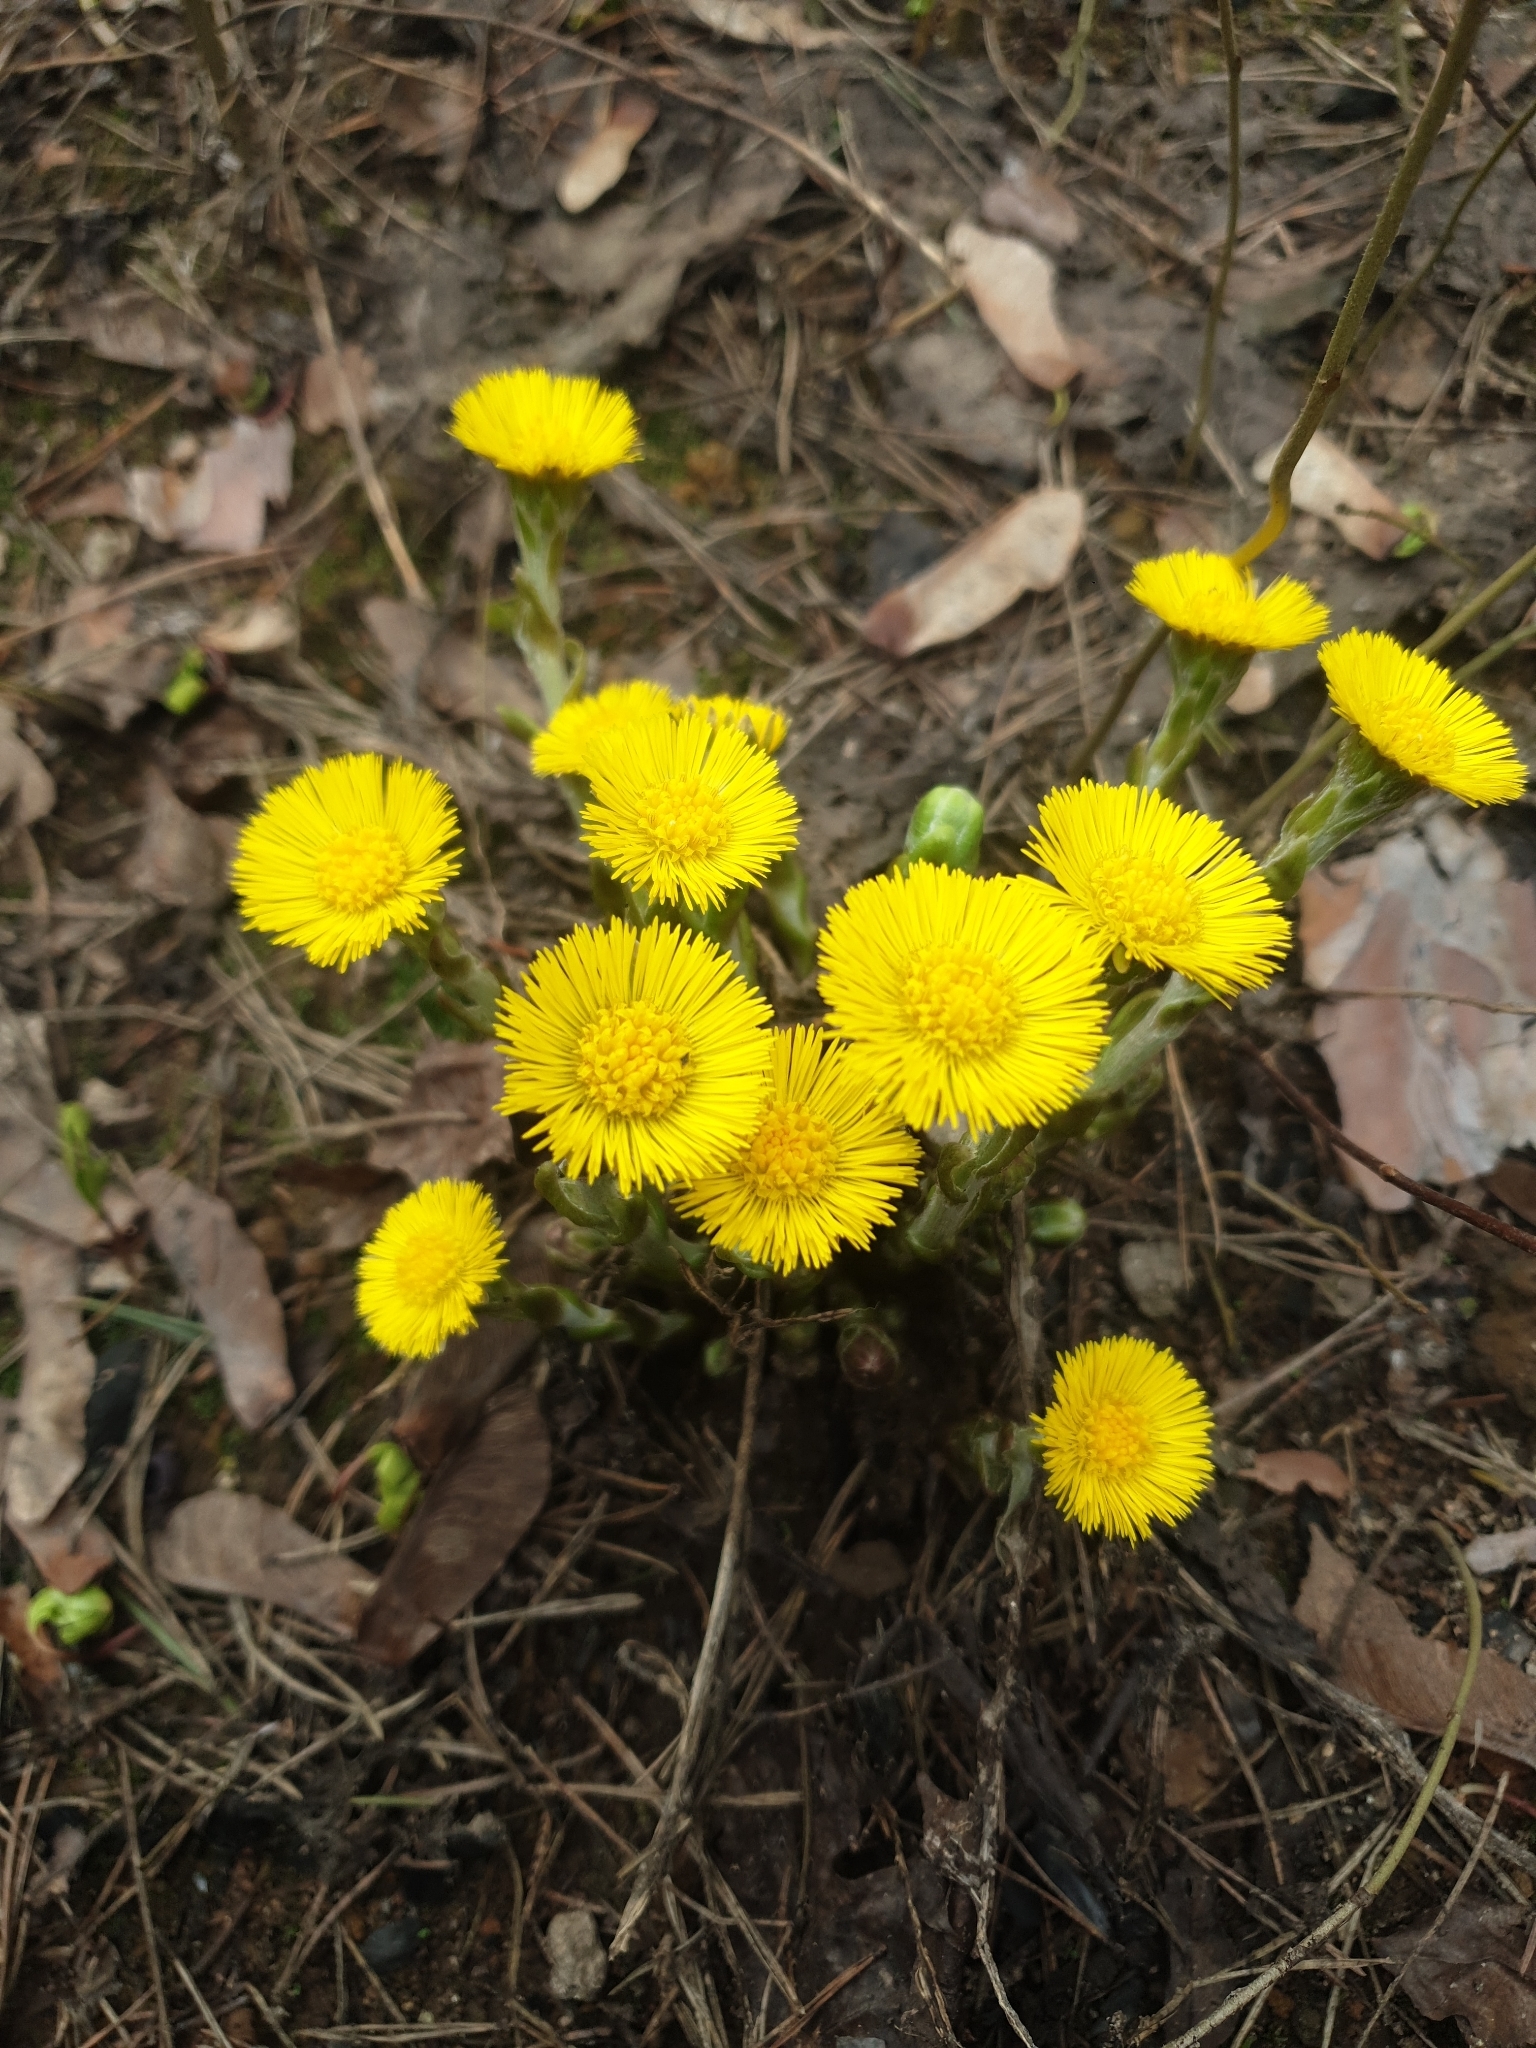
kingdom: Plantae
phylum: Tracheophyta
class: Magnoliopsida
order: Asterales
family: Asteraceae
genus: Tussilago
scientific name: Tussilago farfara
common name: Coltsfoot
